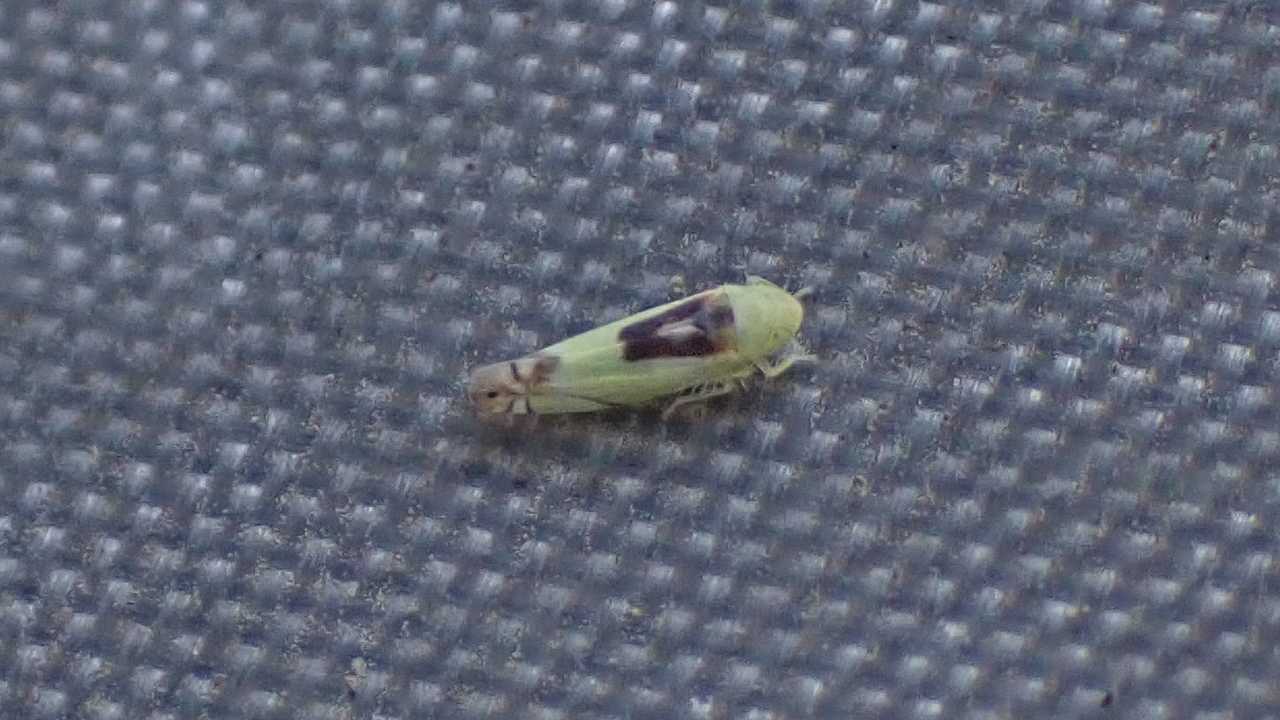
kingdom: Animalia
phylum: Arthropoda
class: Insecta
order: Hemiptera
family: Cicadellidae
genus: Zyginella
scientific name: Zyginella pulchra
